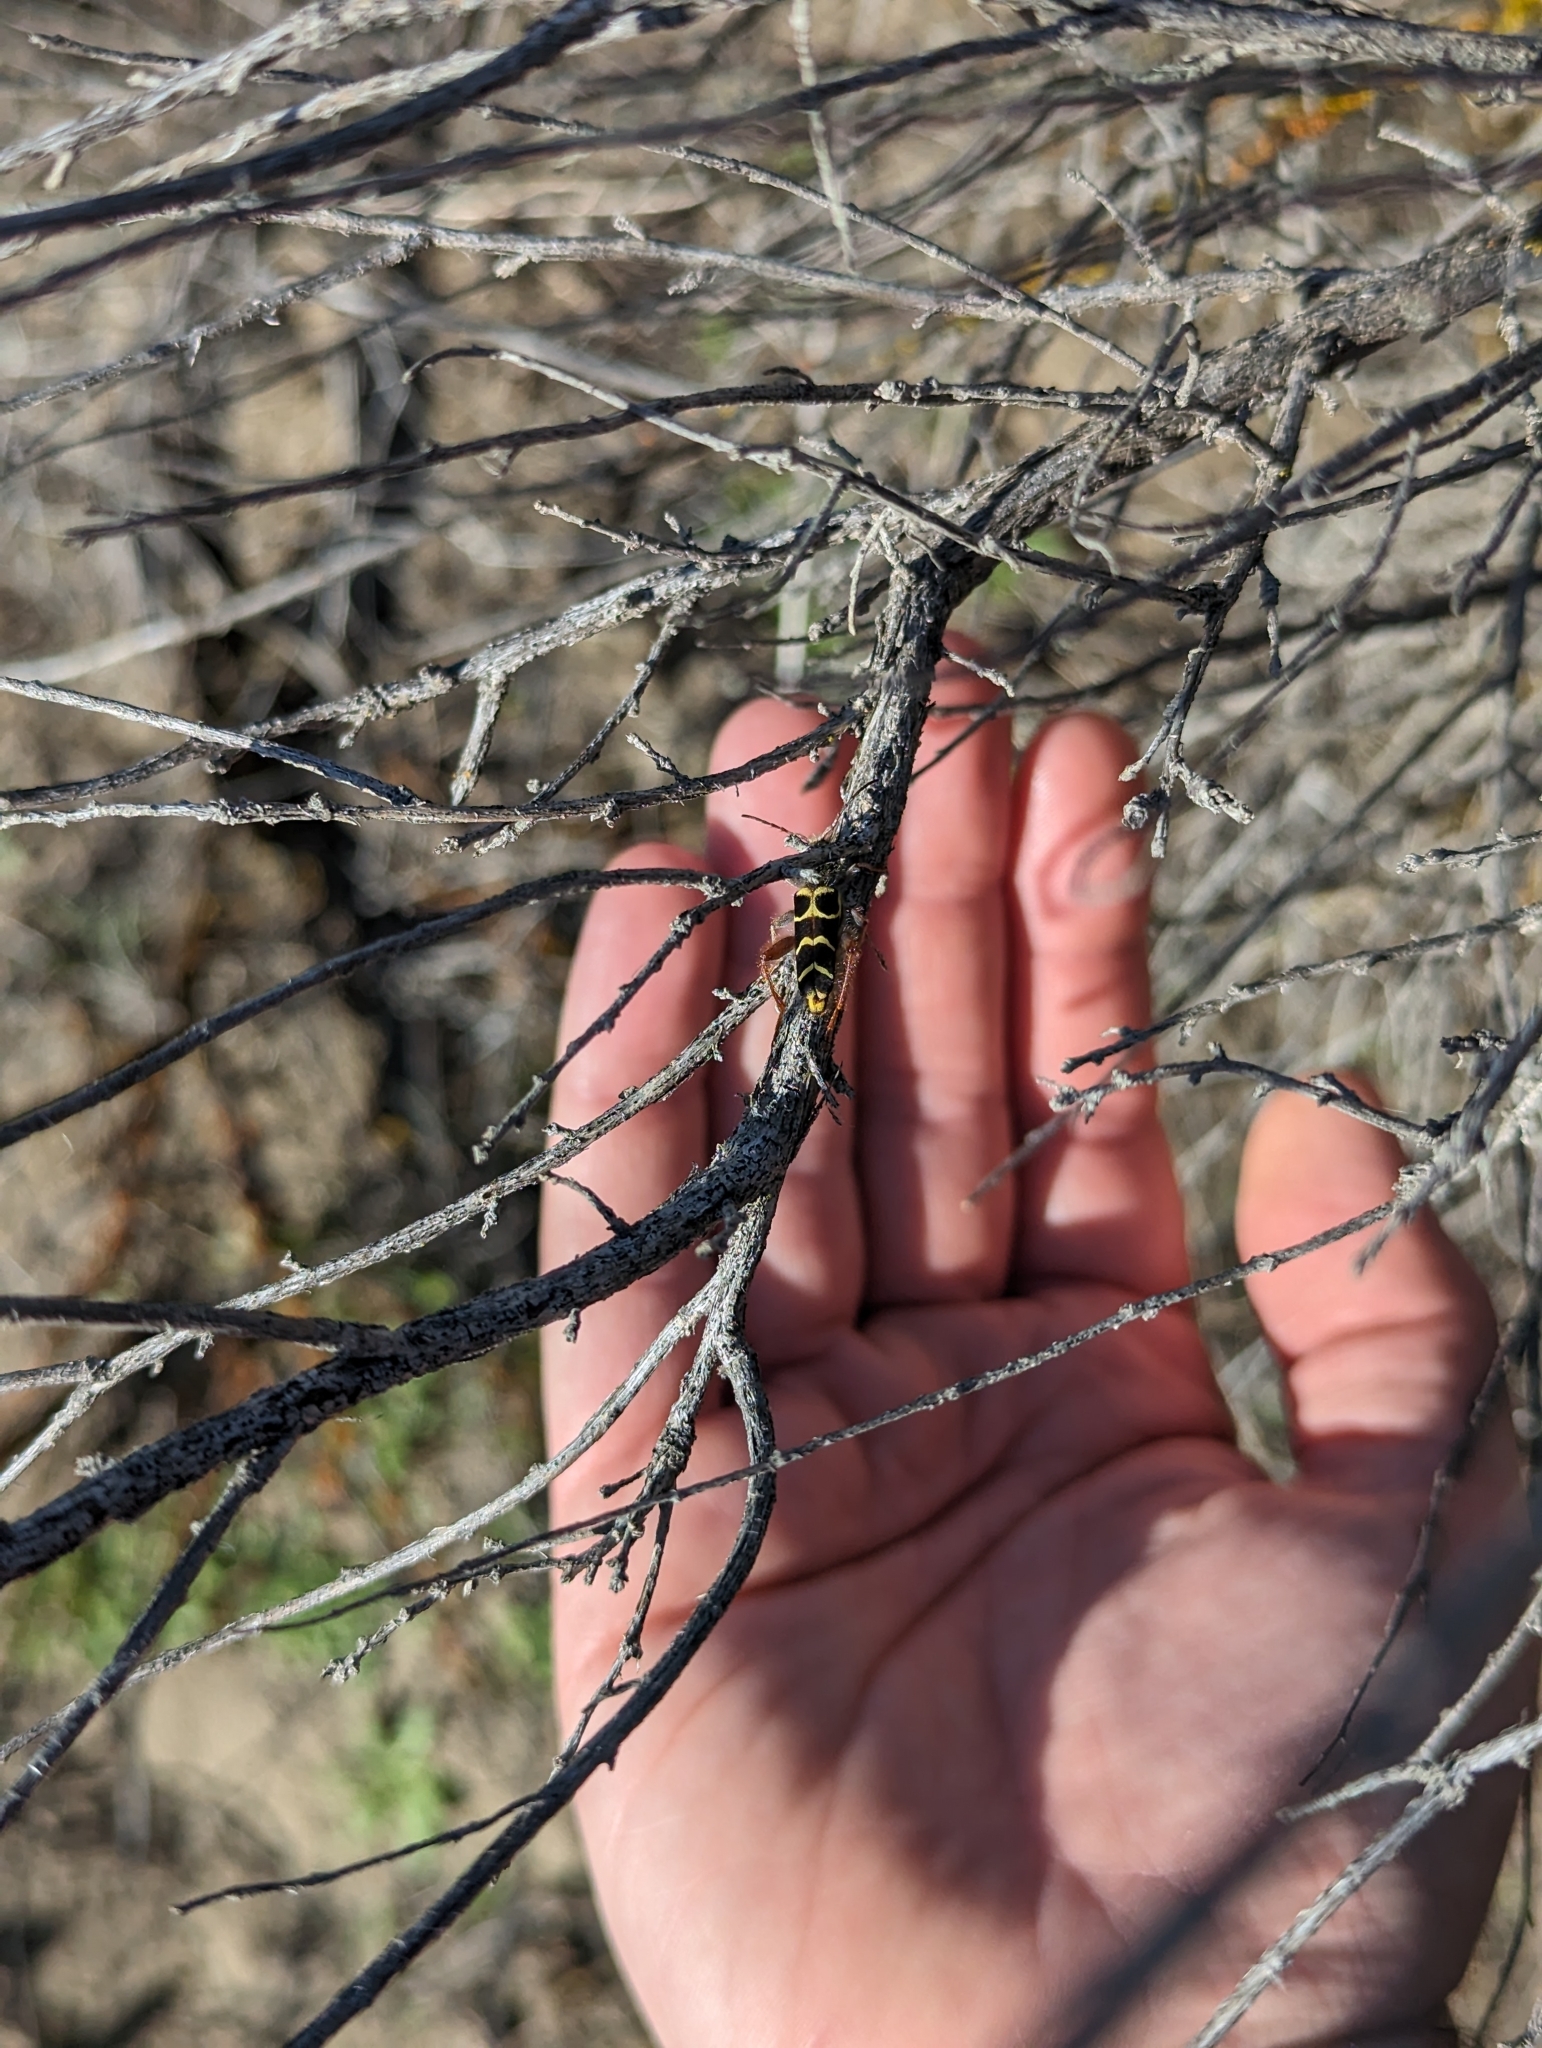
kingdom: Animalia
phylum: Arthropoda
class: Insecta
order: Coleoptera
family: Cerambycidae
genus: Neoclytus
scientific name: Neoclytus caprea
